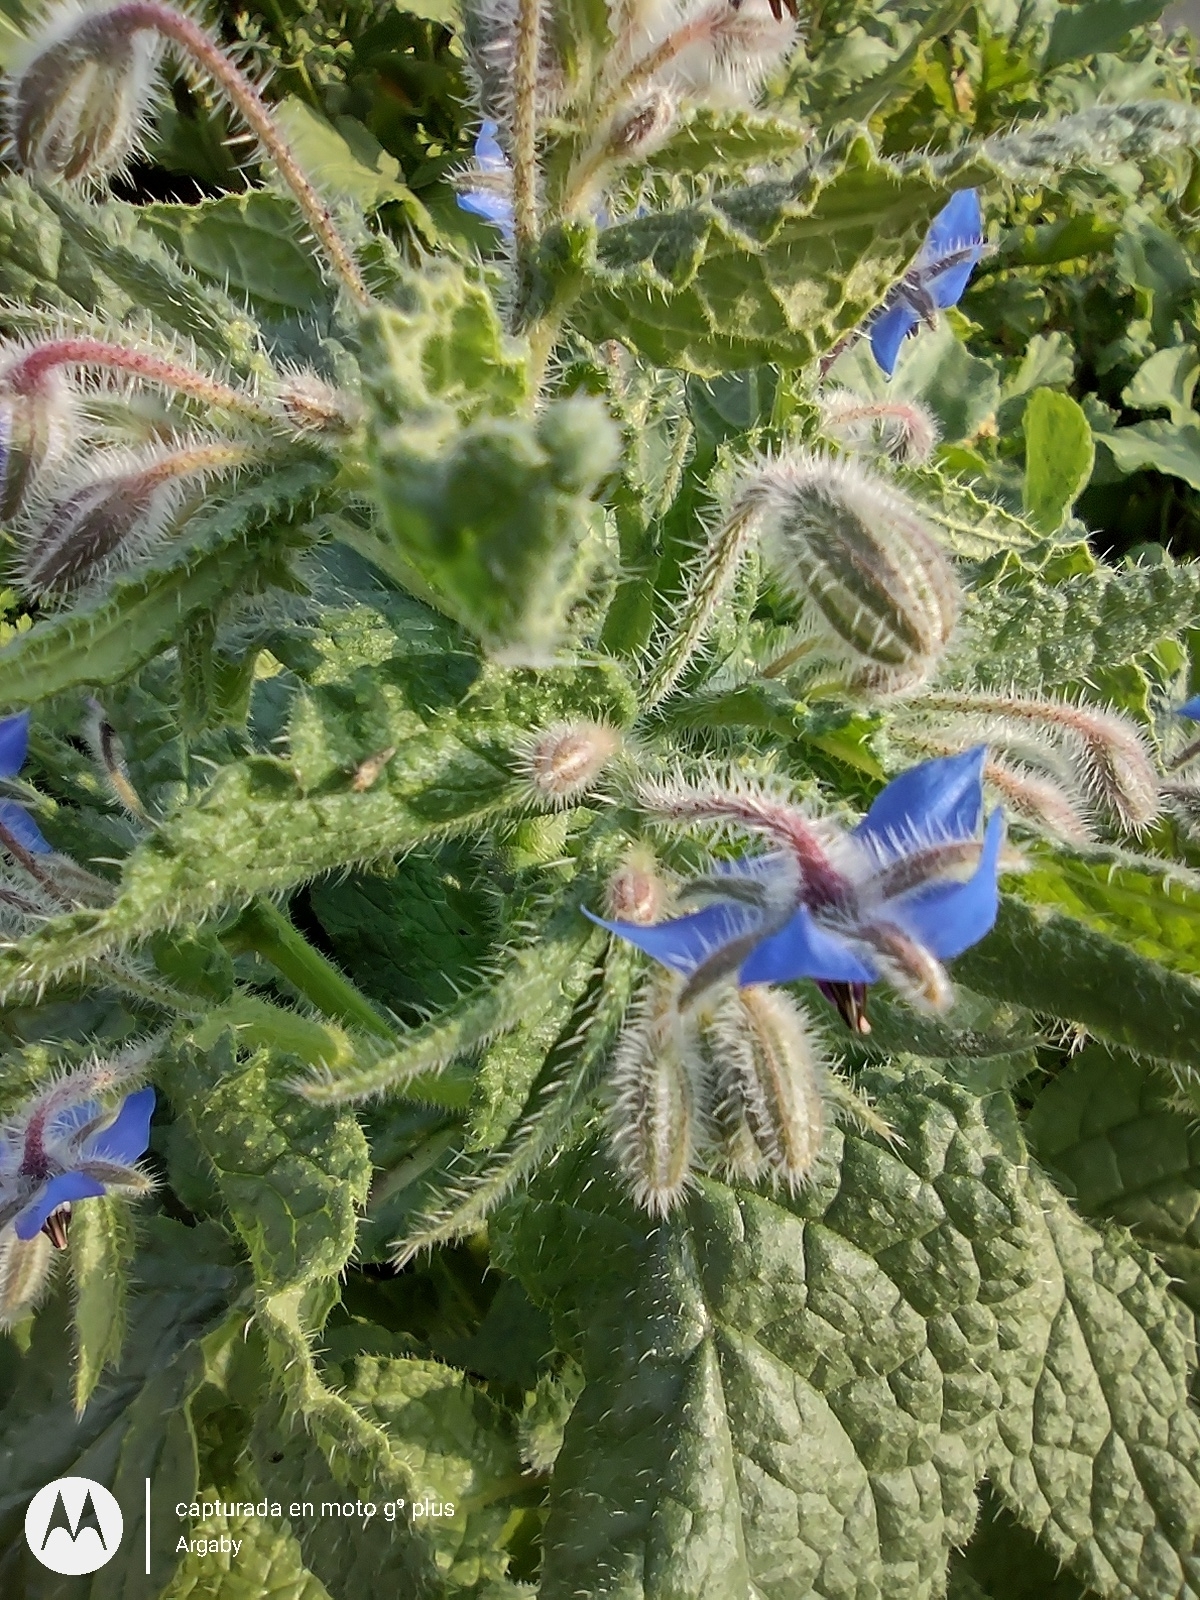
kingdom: Plantae
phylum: Tracheophyta
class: Magnoliopsida
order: Boraginales
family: Boraginaceae
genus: Borago
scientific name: Borago officinalis
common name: Borage
